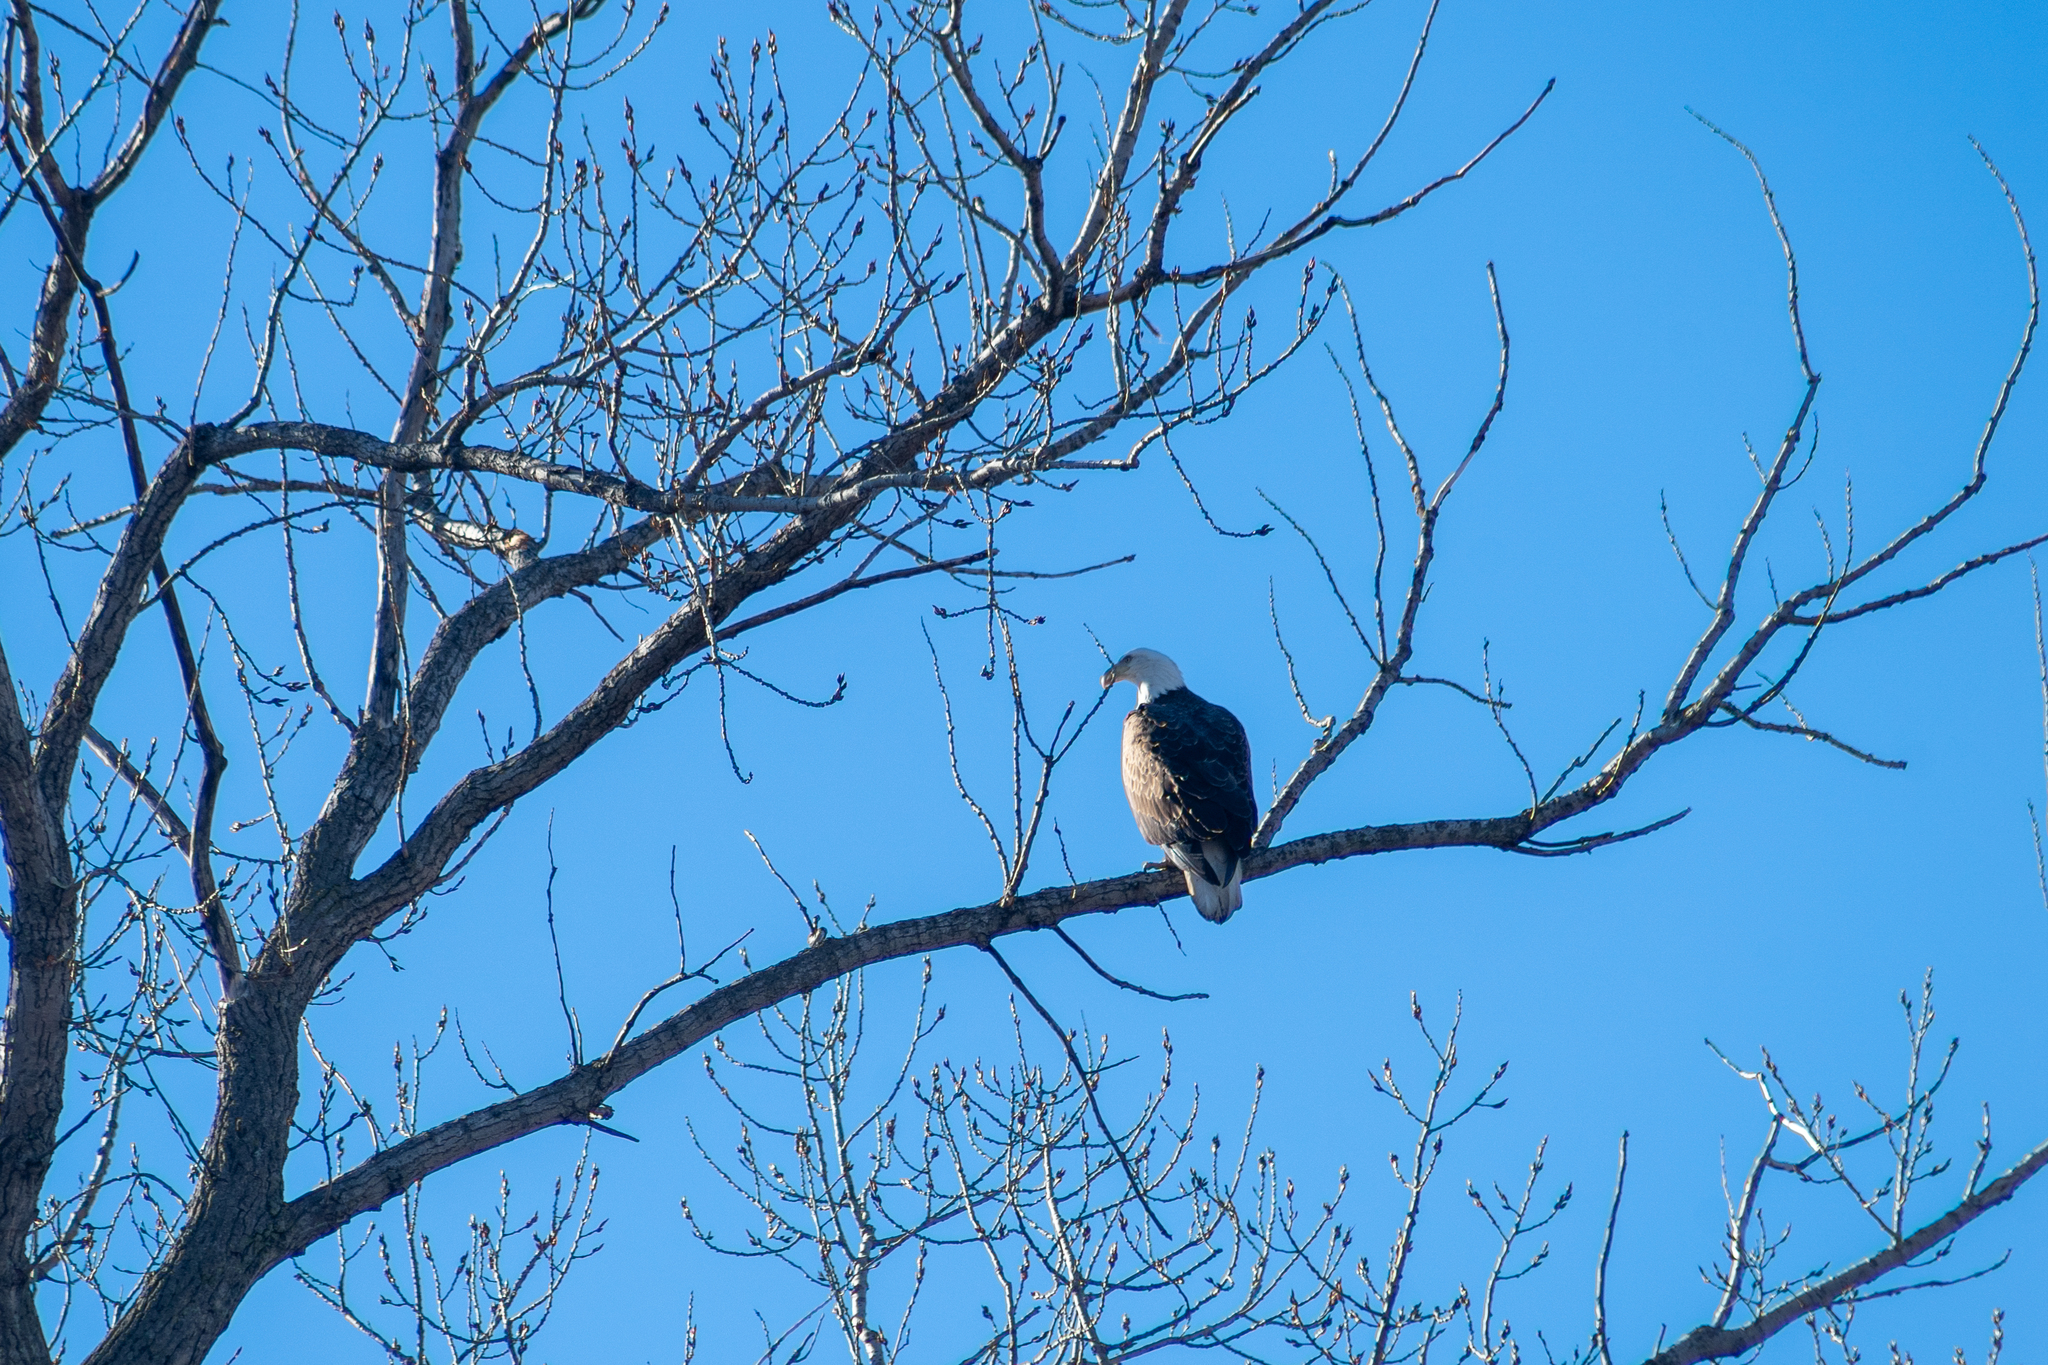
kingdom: Animalia
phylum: Chordata
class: Aves
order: Accipitriformes
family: Accipitridae
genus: Haliaeetus
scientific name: Haliaeetus leucocephalus
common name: Bald eagle
